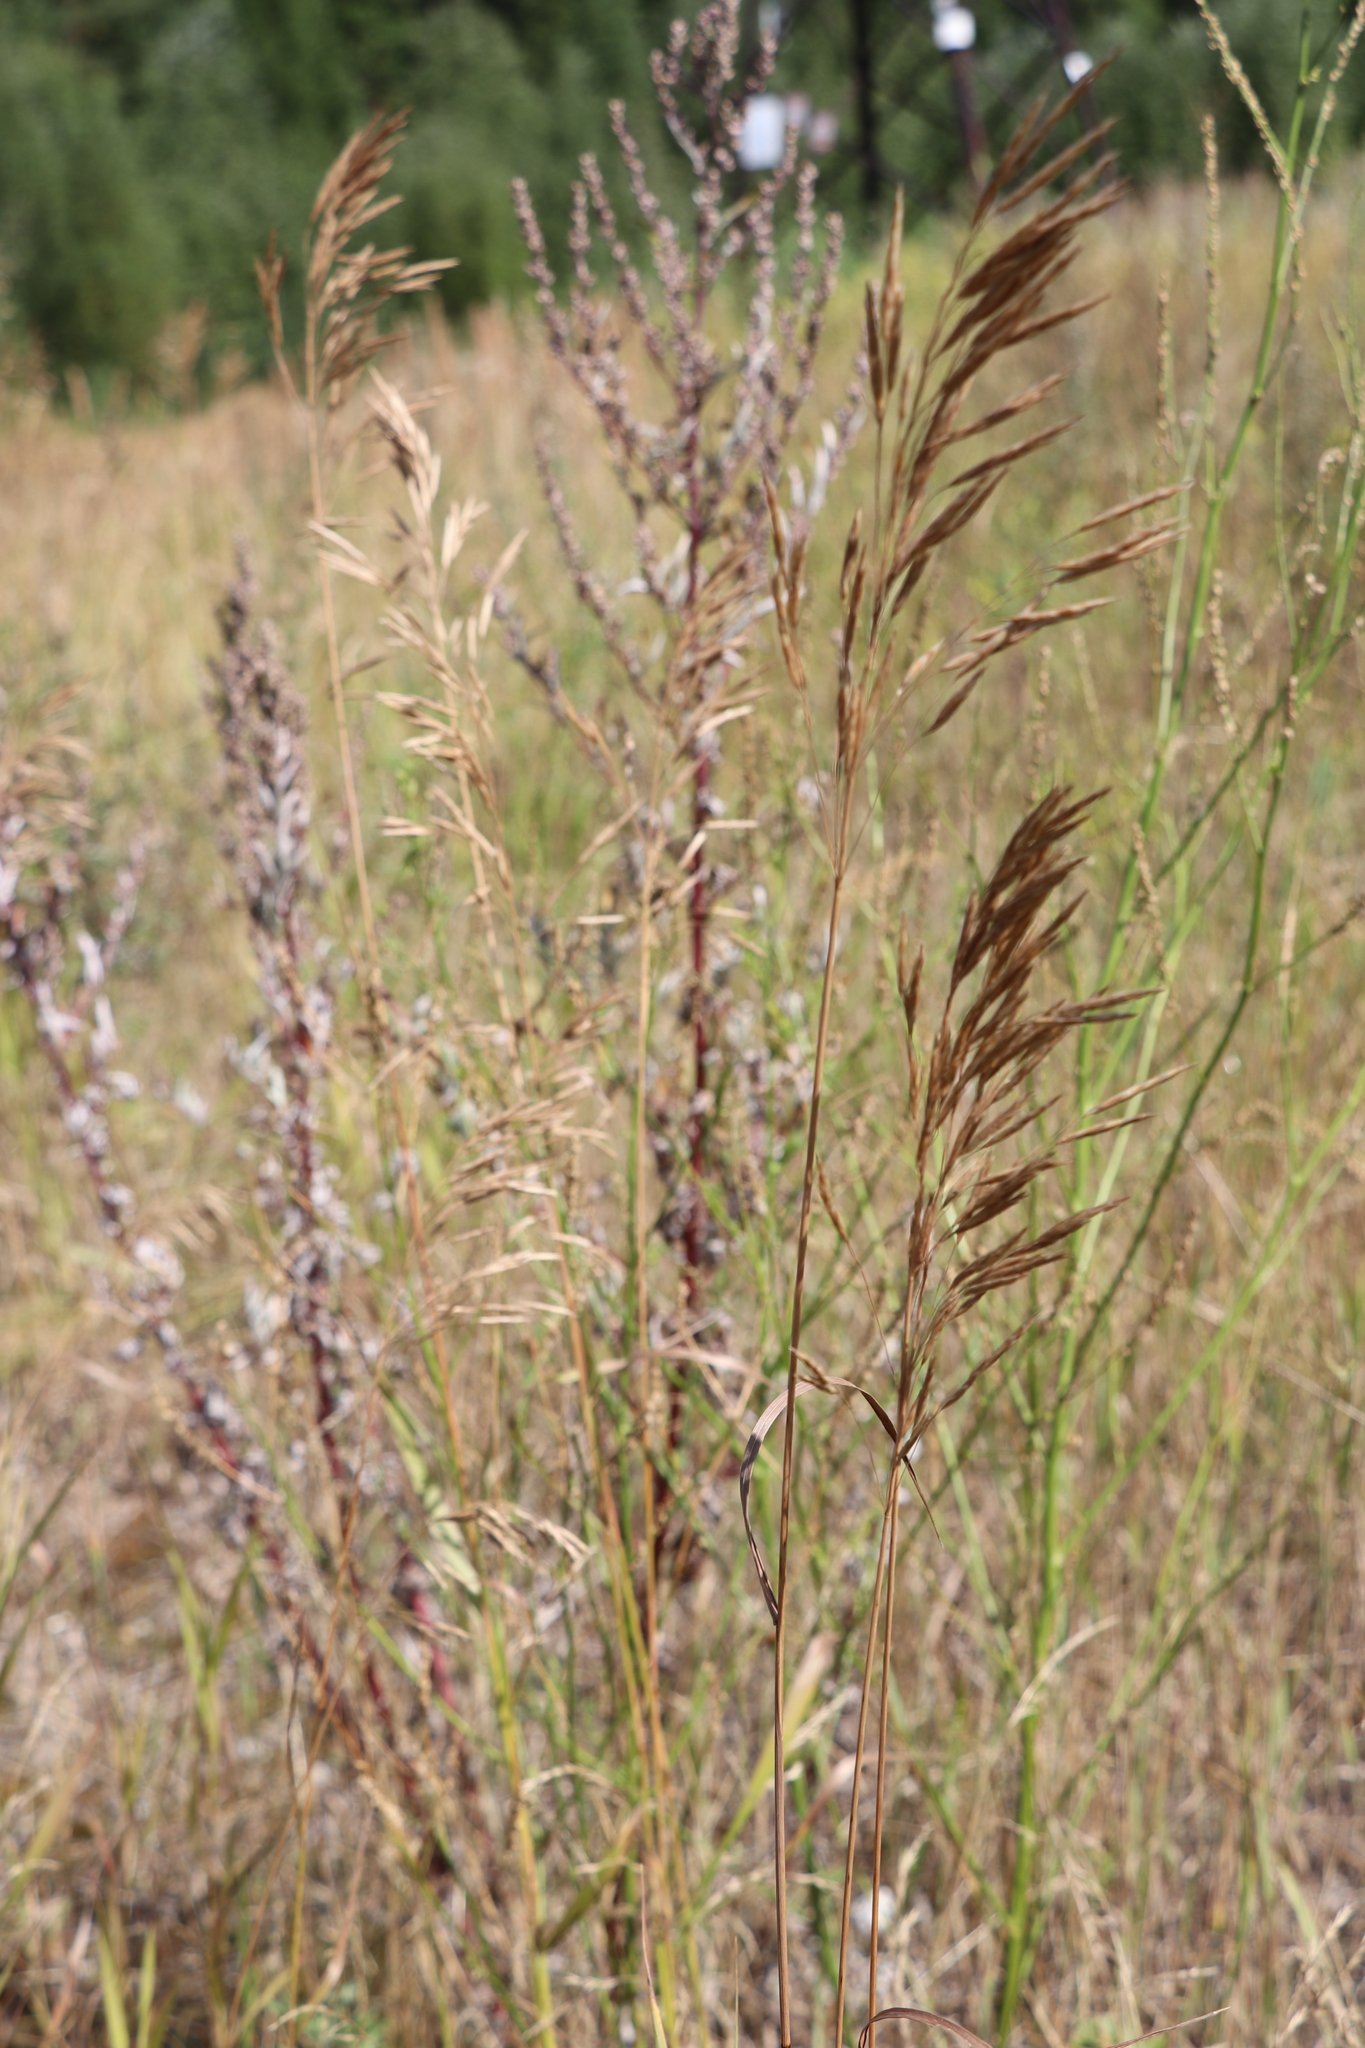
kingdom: Plantae
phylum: Tracheophyta
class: Liliopsida
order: Poales
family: Poaceae
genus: Bromus
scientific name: Bromus inermis
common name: Smooth brome
